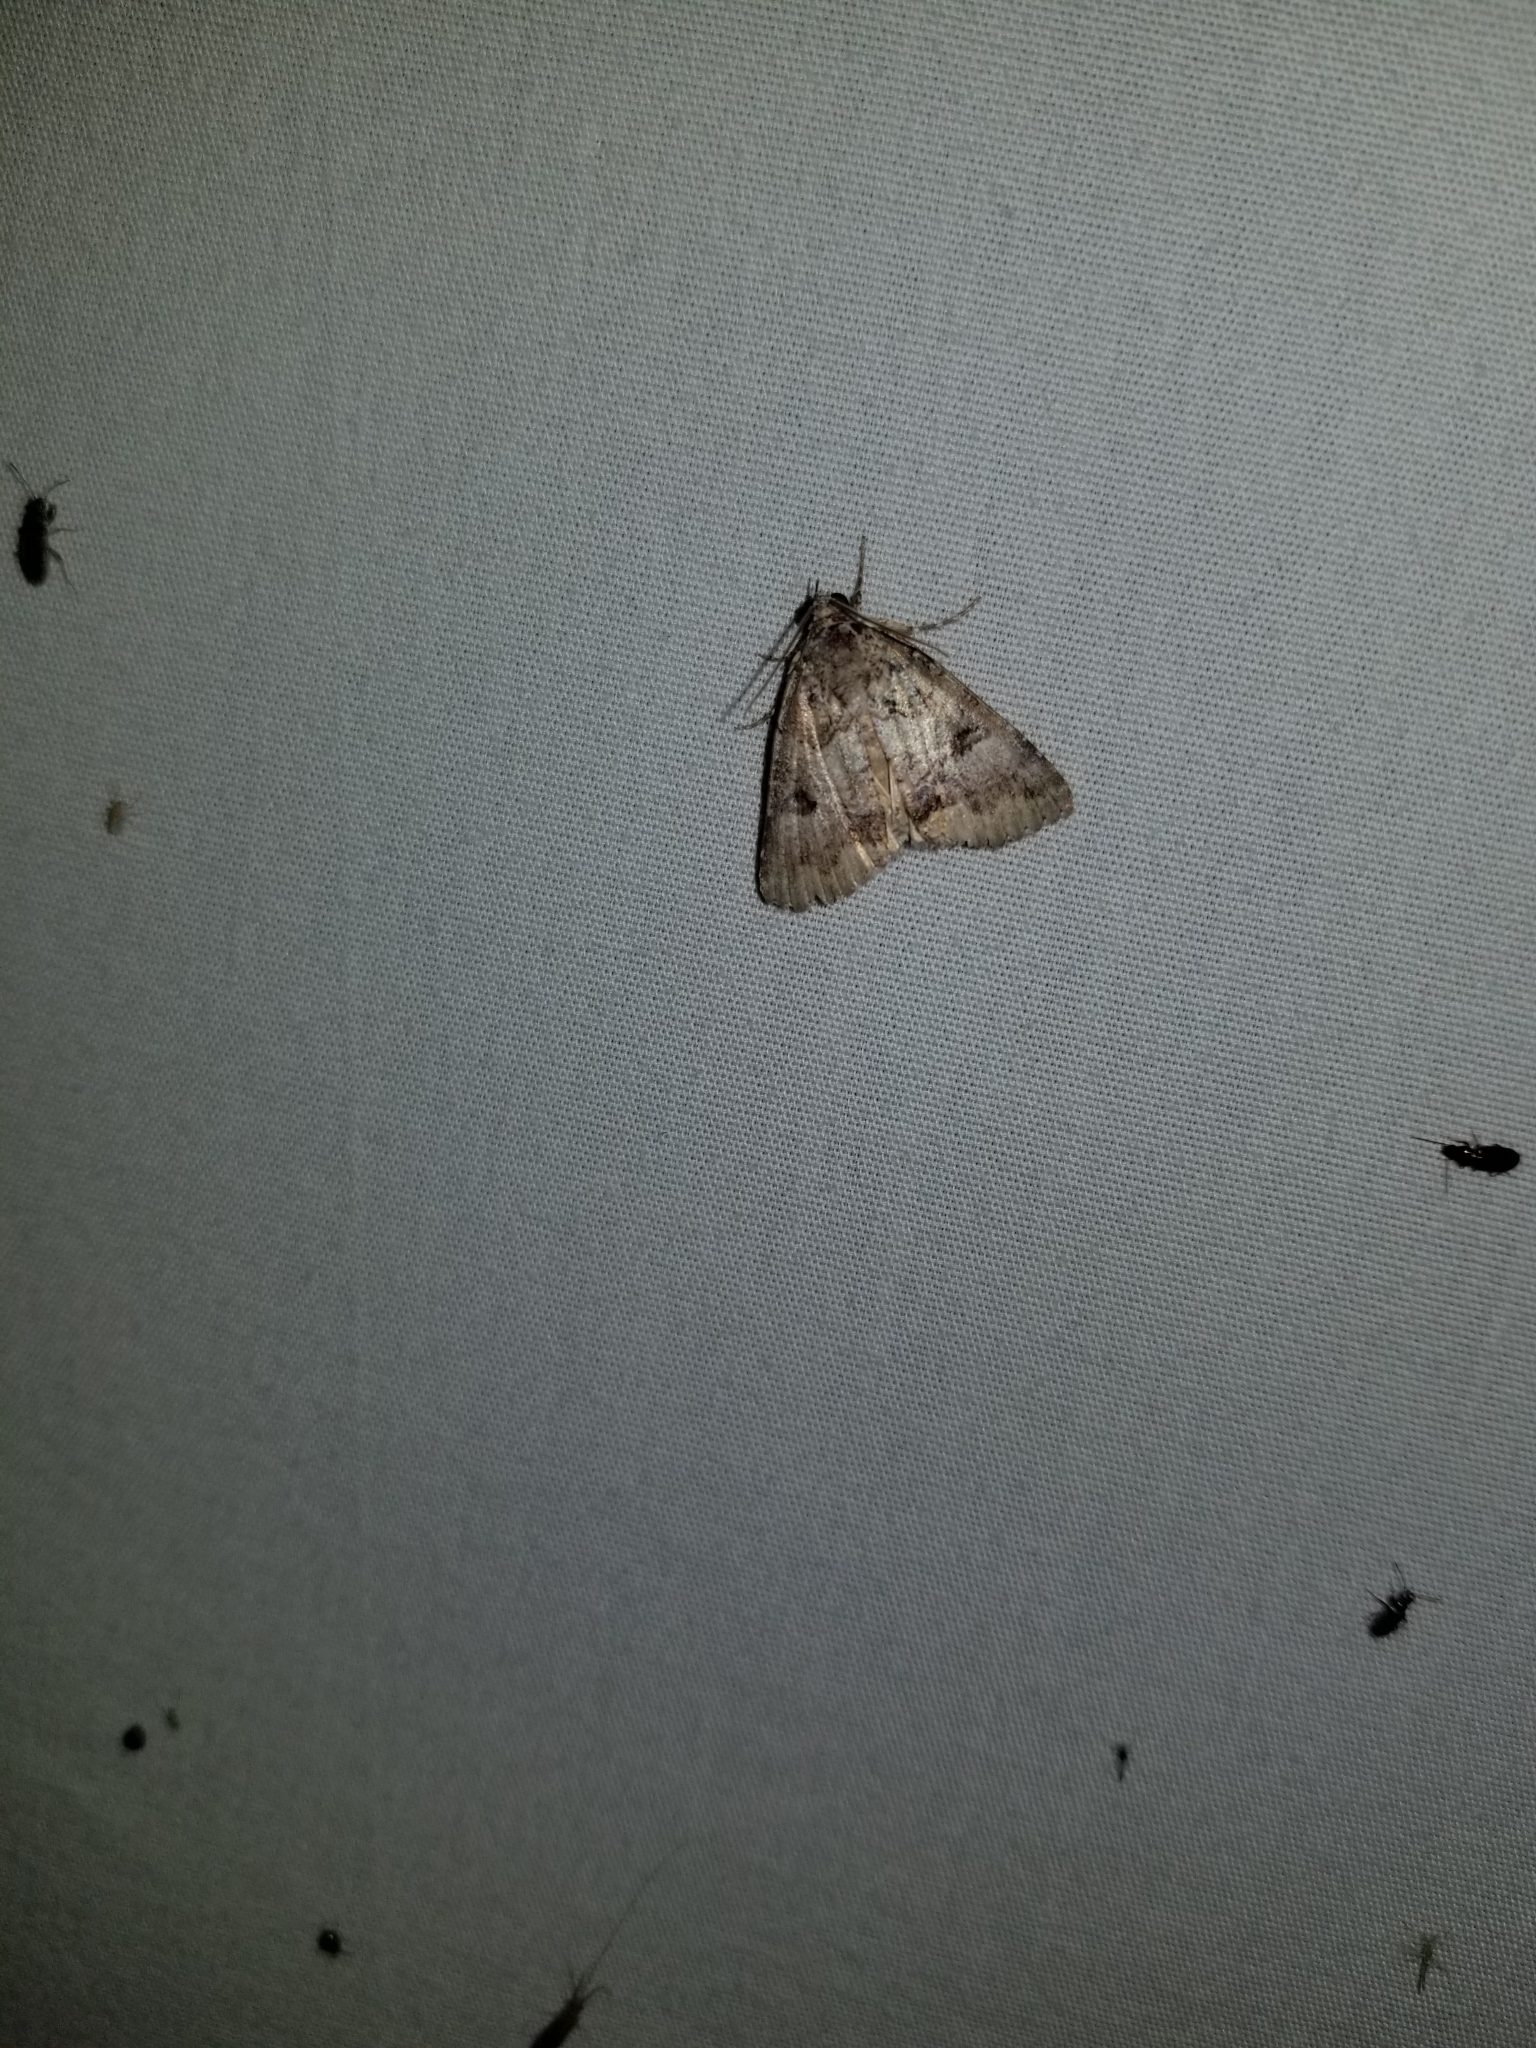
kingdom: Animalia
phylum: Arthropoda
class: Insecta
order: Lepidoptera
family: Erebidae
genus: Eubolina
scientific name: Eubolina impartialis
